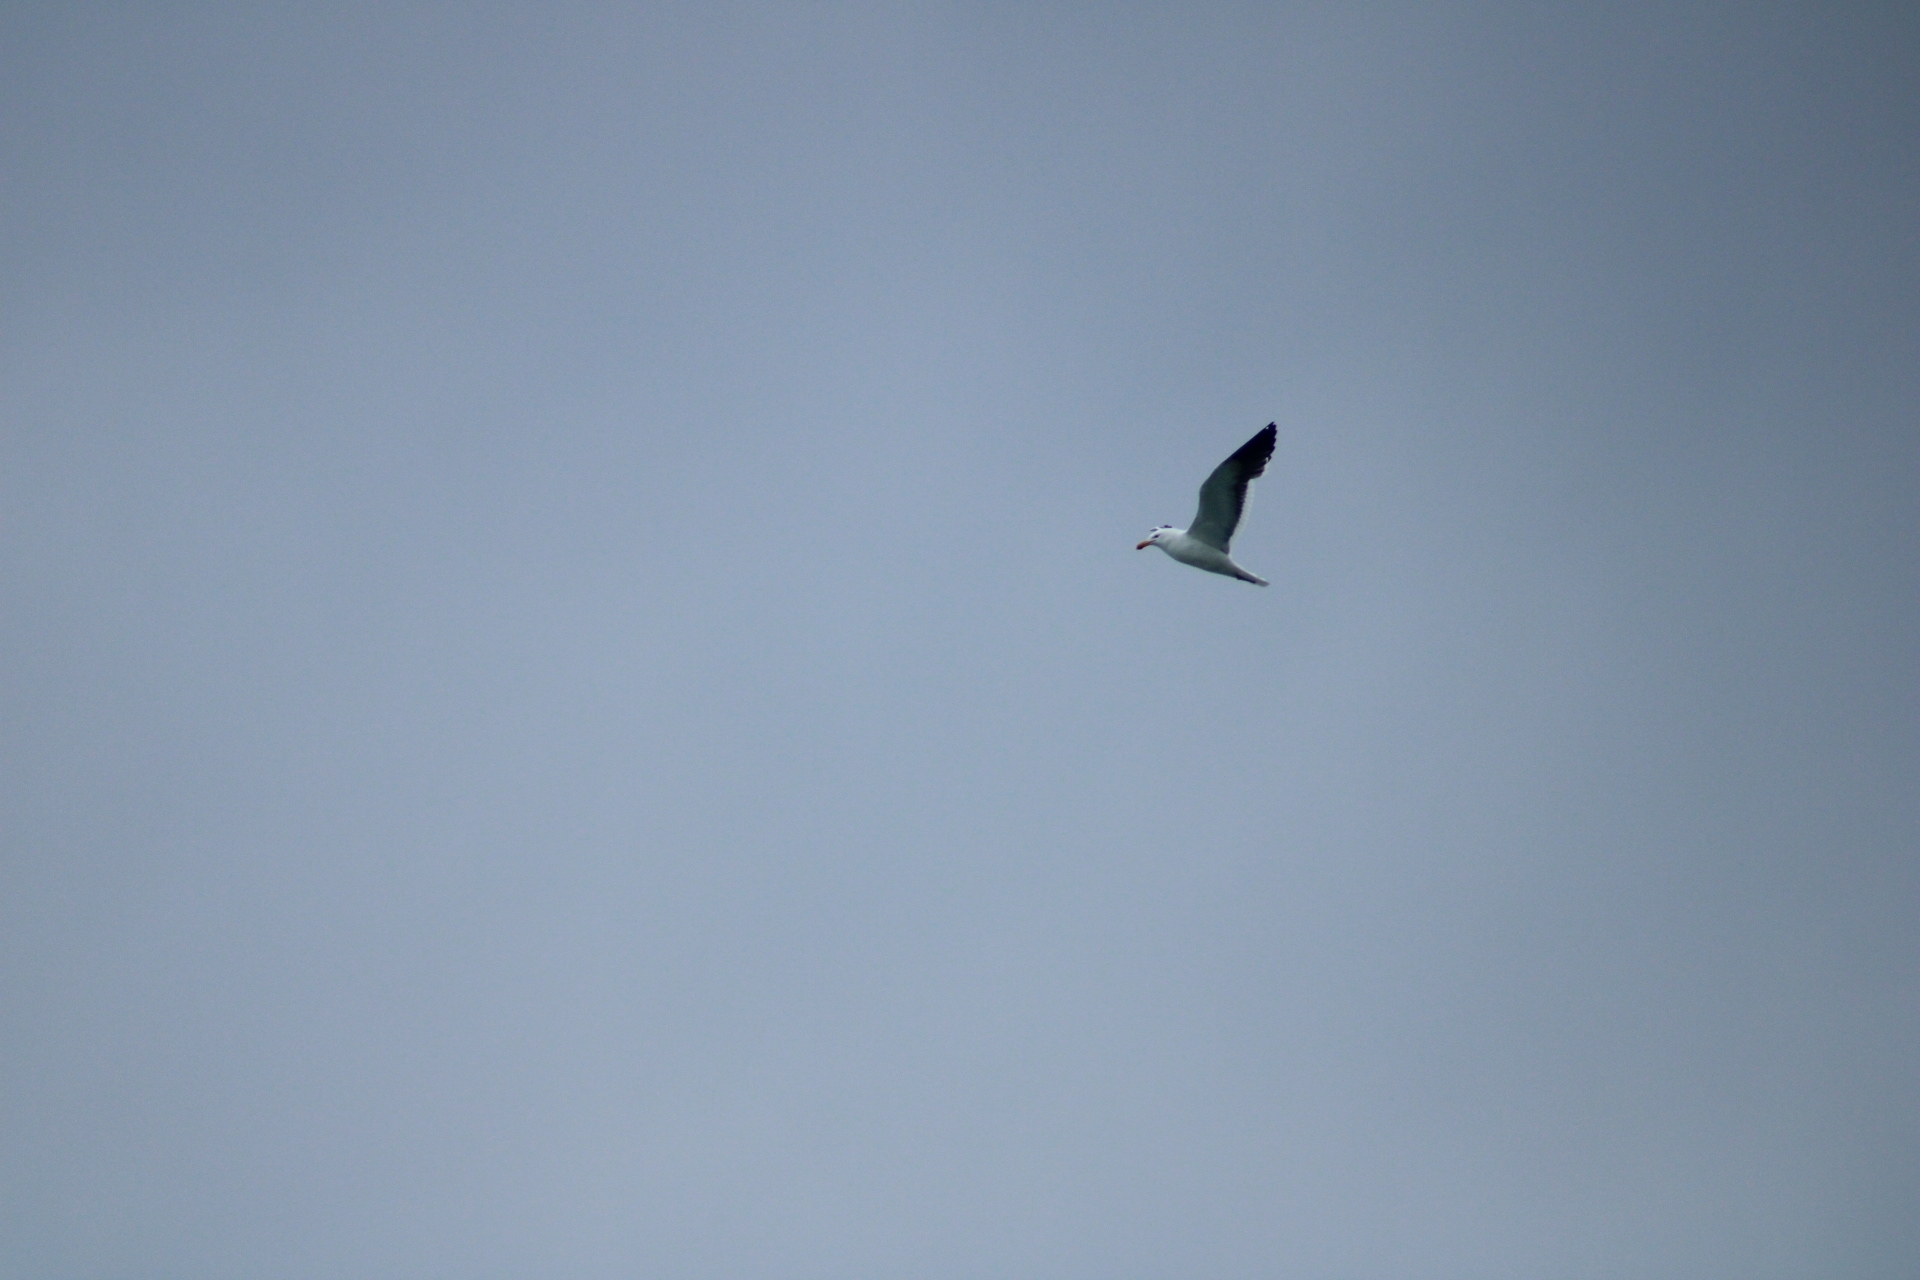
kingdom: Animalia
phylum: Chordata
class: Aves
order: Charadriiformes
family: Laridae
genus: Larus
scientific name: Larus dominicanus
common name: Kelp gull
